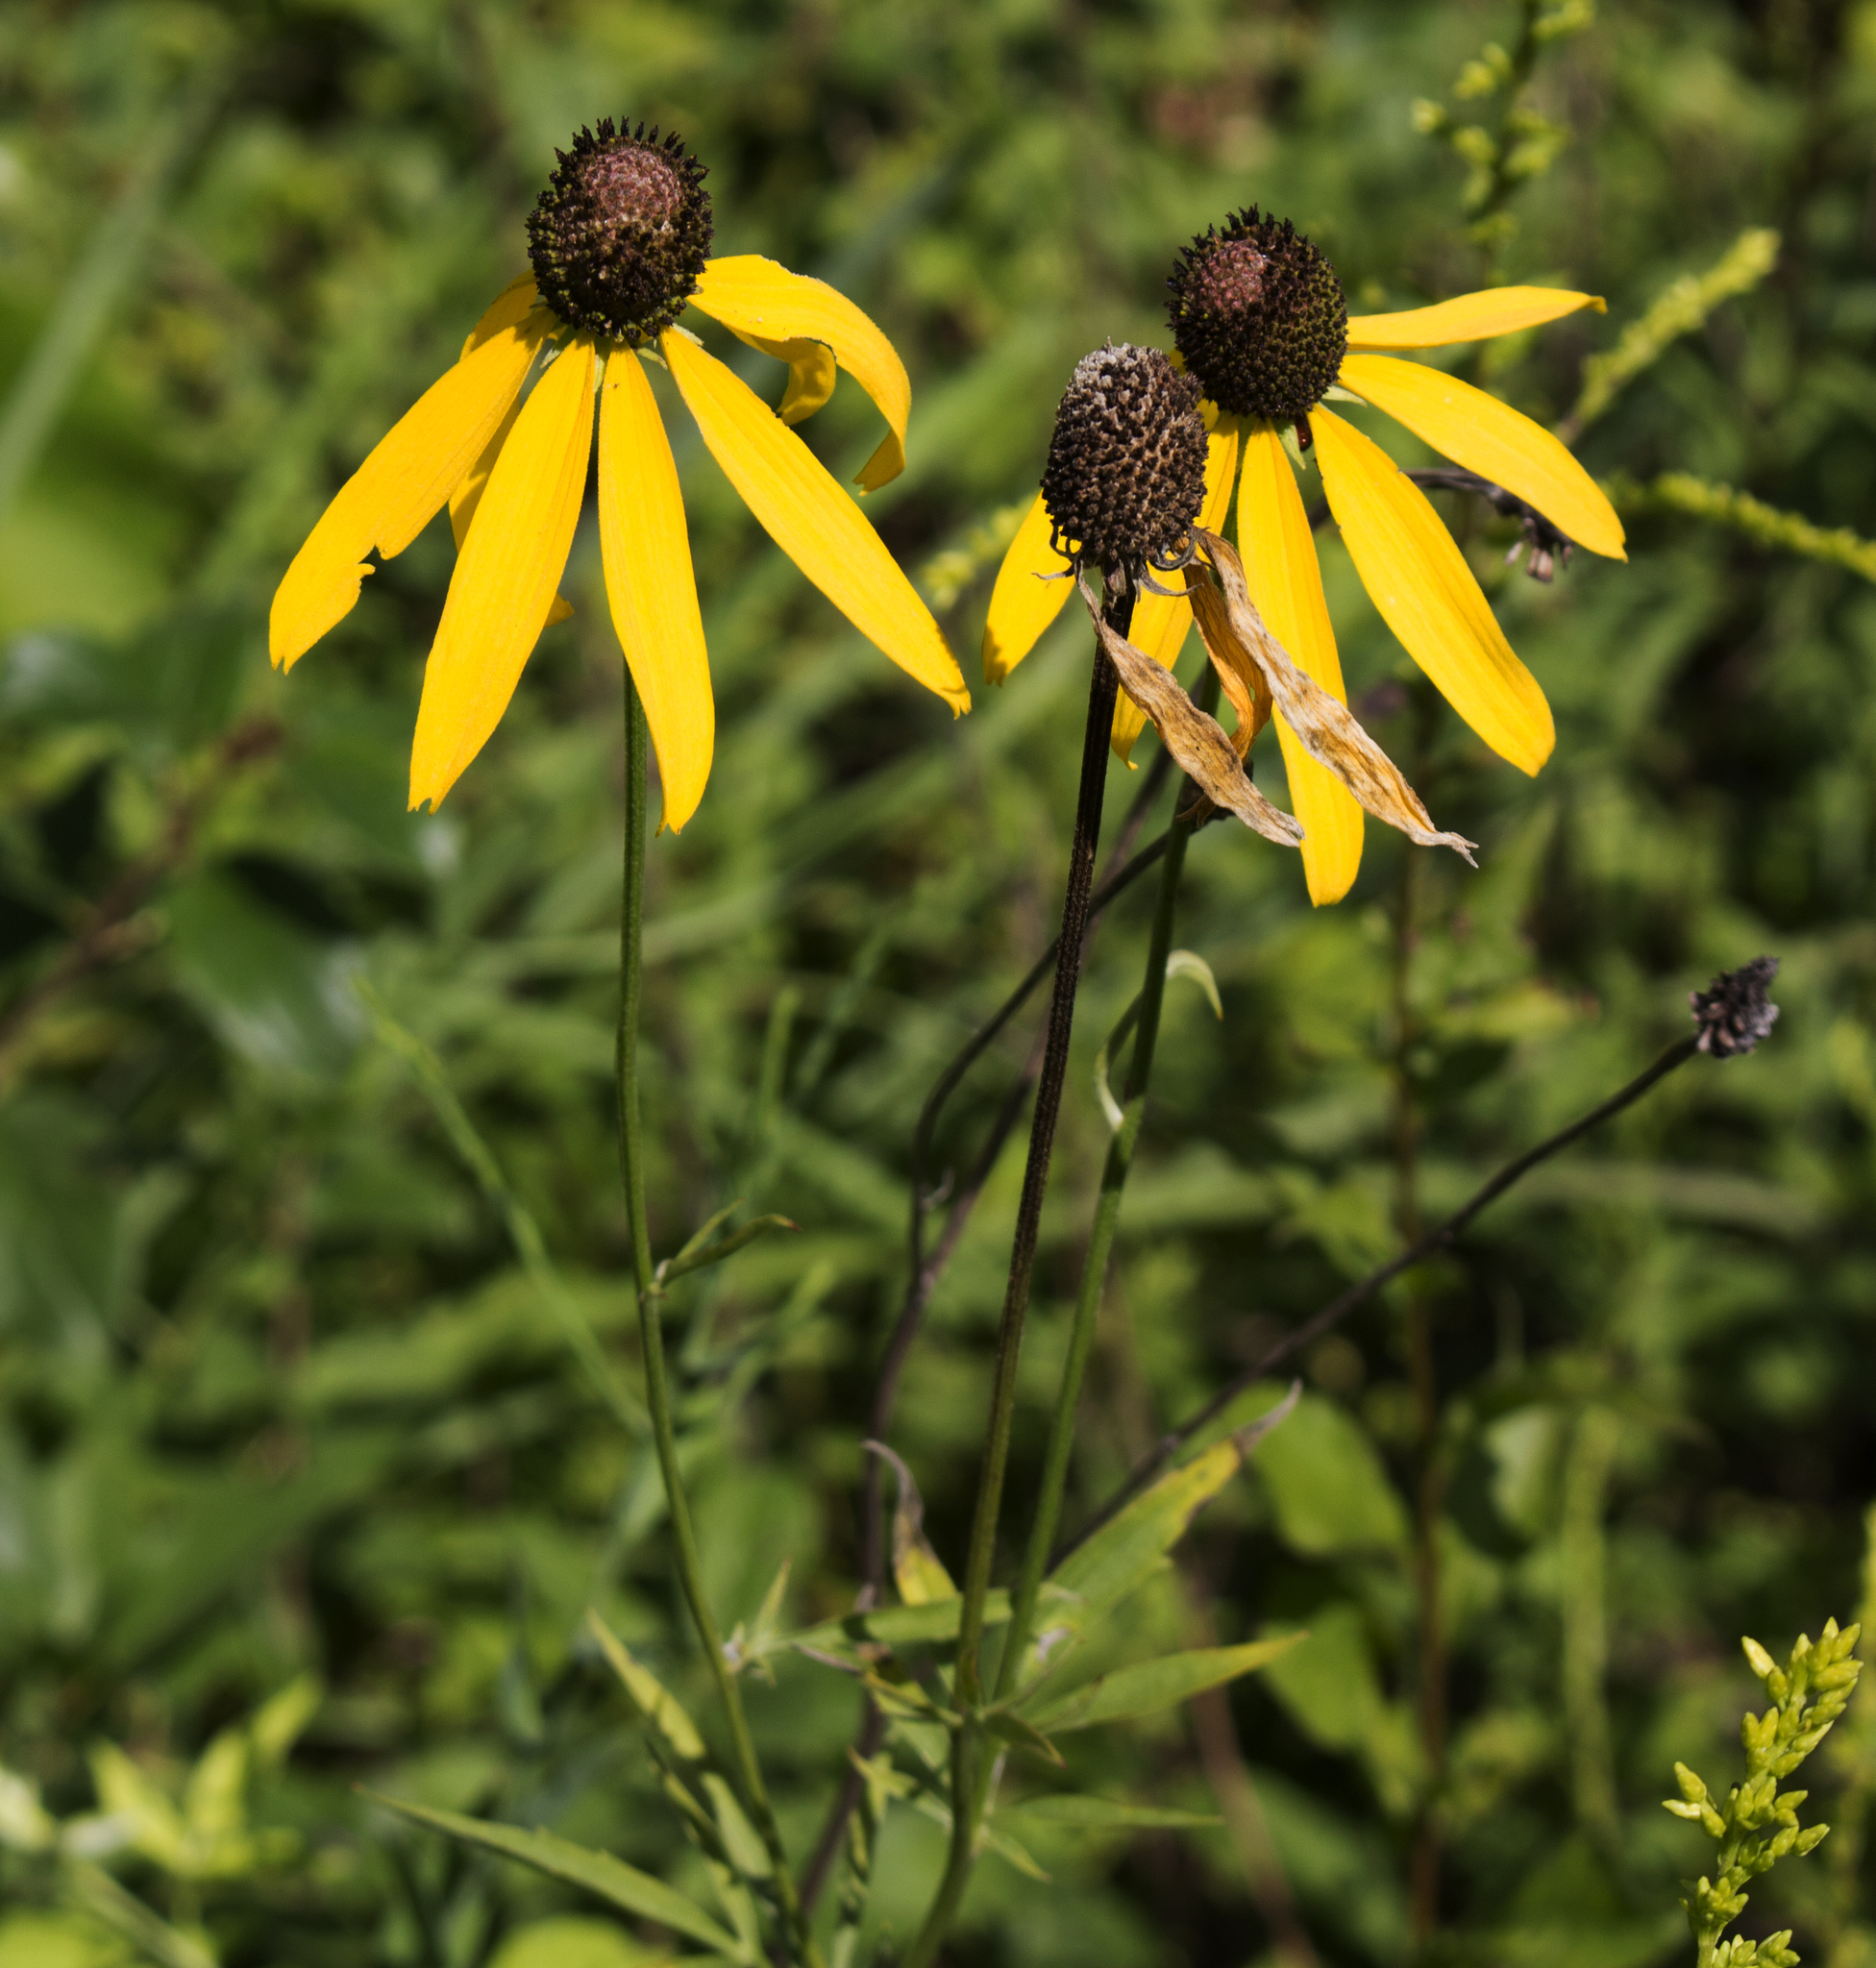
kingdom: Plantae
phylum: Tracheophyta
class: Magnoliopsida
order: Asterales
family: Asteraceae
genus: Ratibida
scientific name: Ratibida pinnata
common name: Drooping prairie-coneflower
